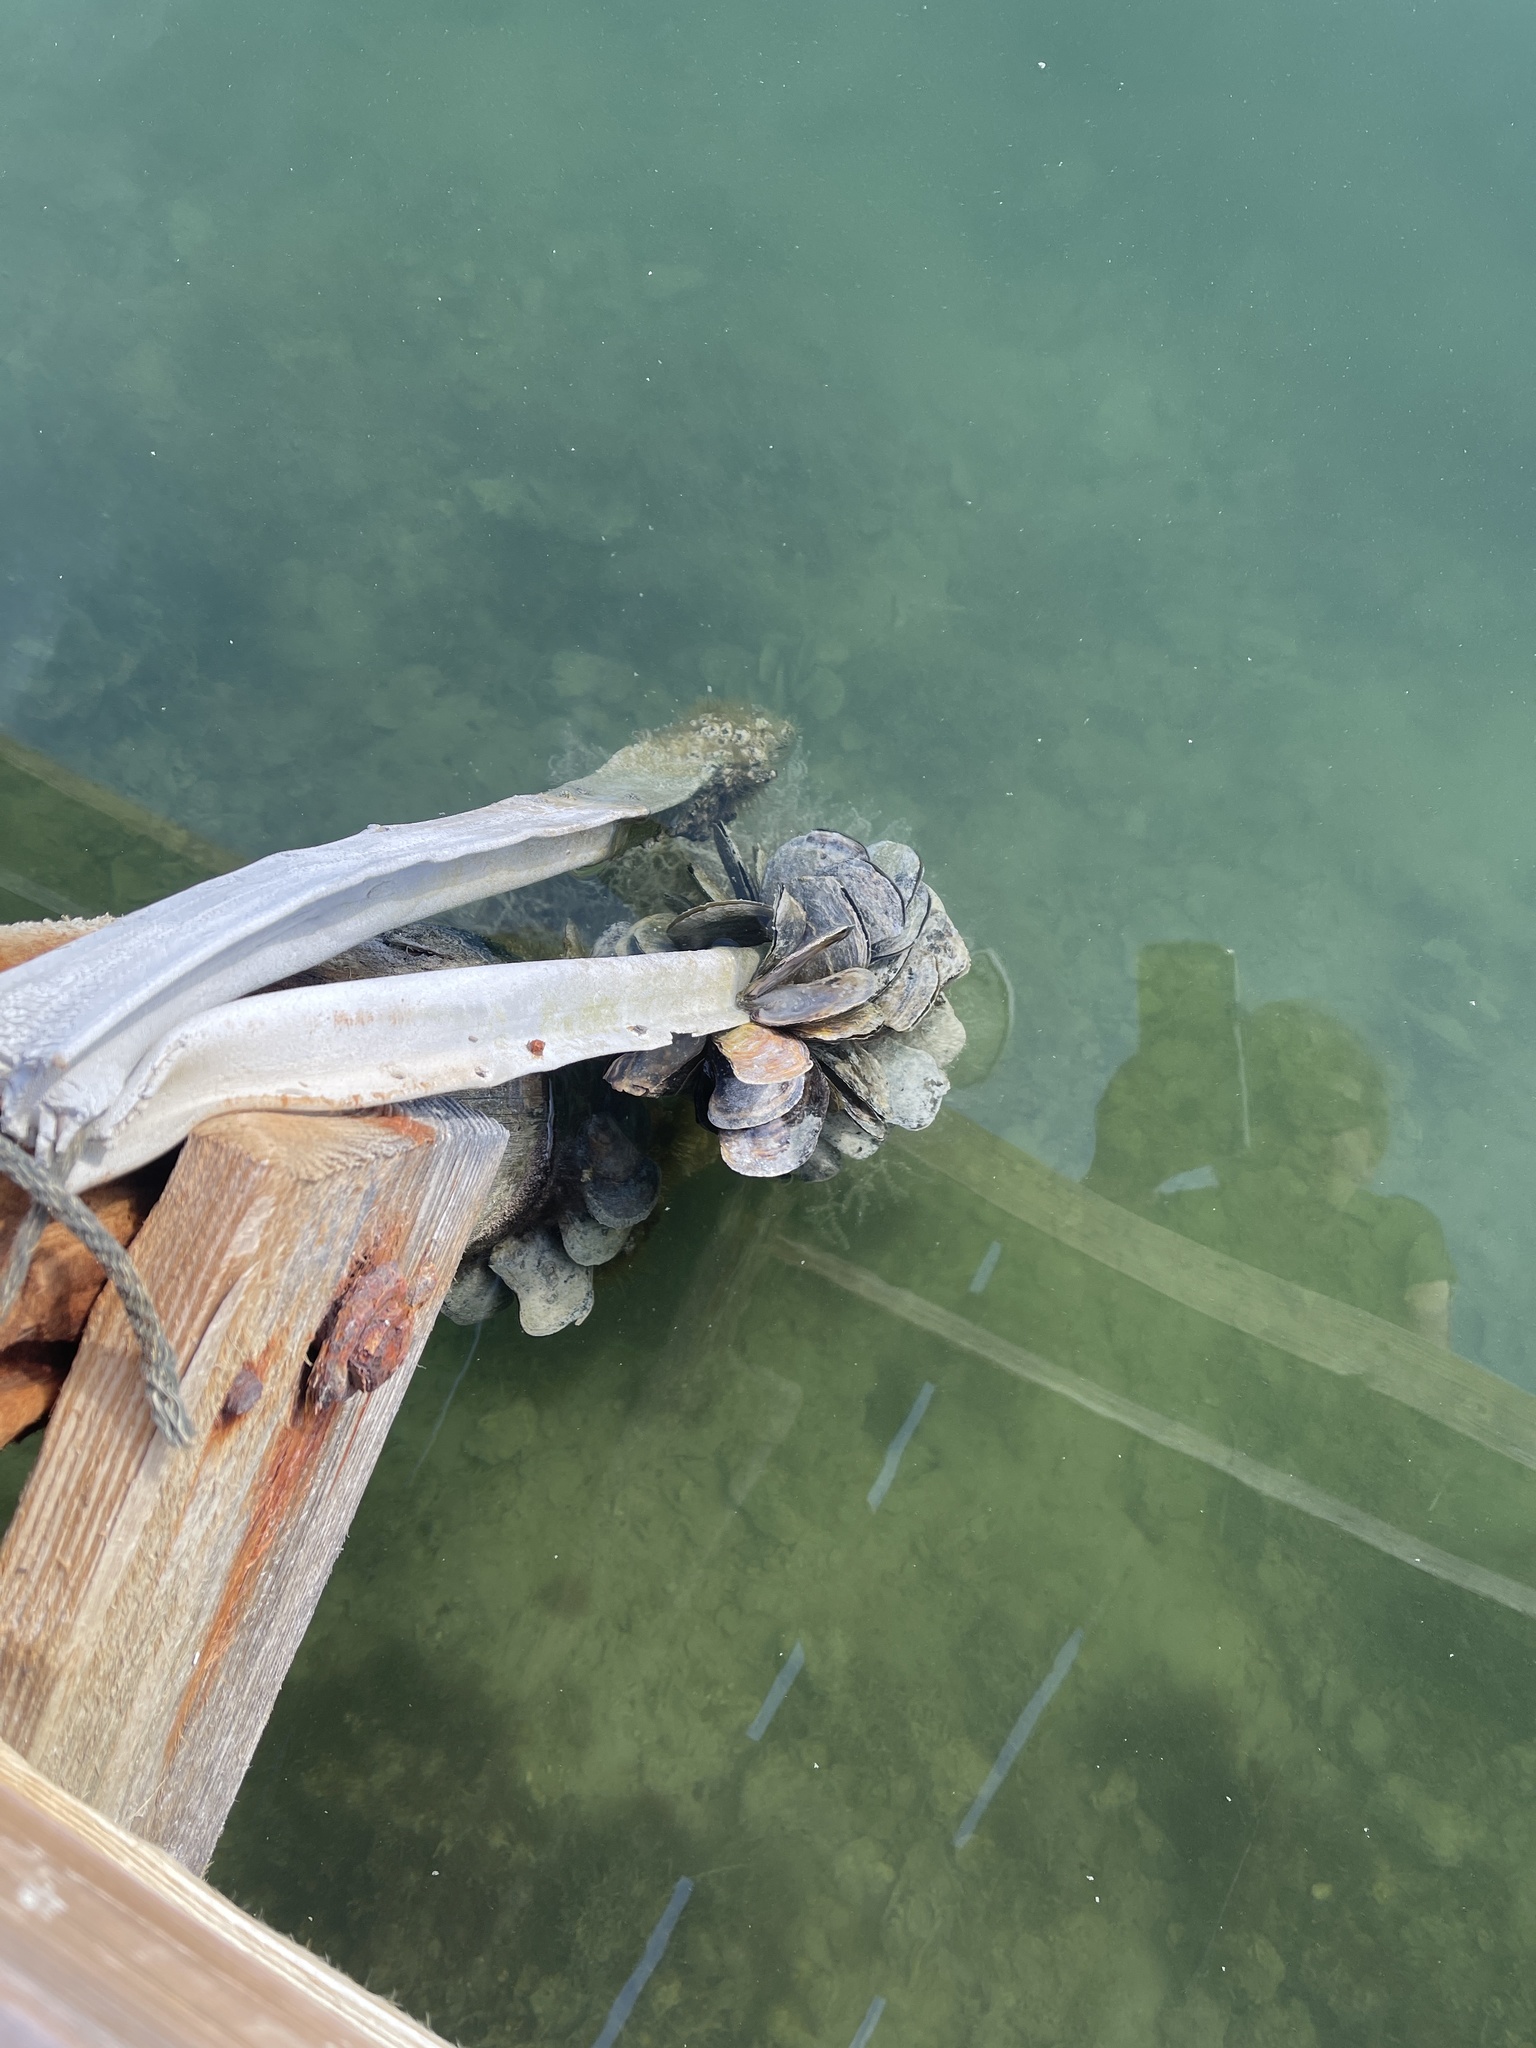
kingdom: Animalia
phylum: Mollusca
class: Bivalvia
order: Ostreida
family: Ostreidae
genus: Crassostrea
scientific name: Crassostrea virginica
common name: American oyster
